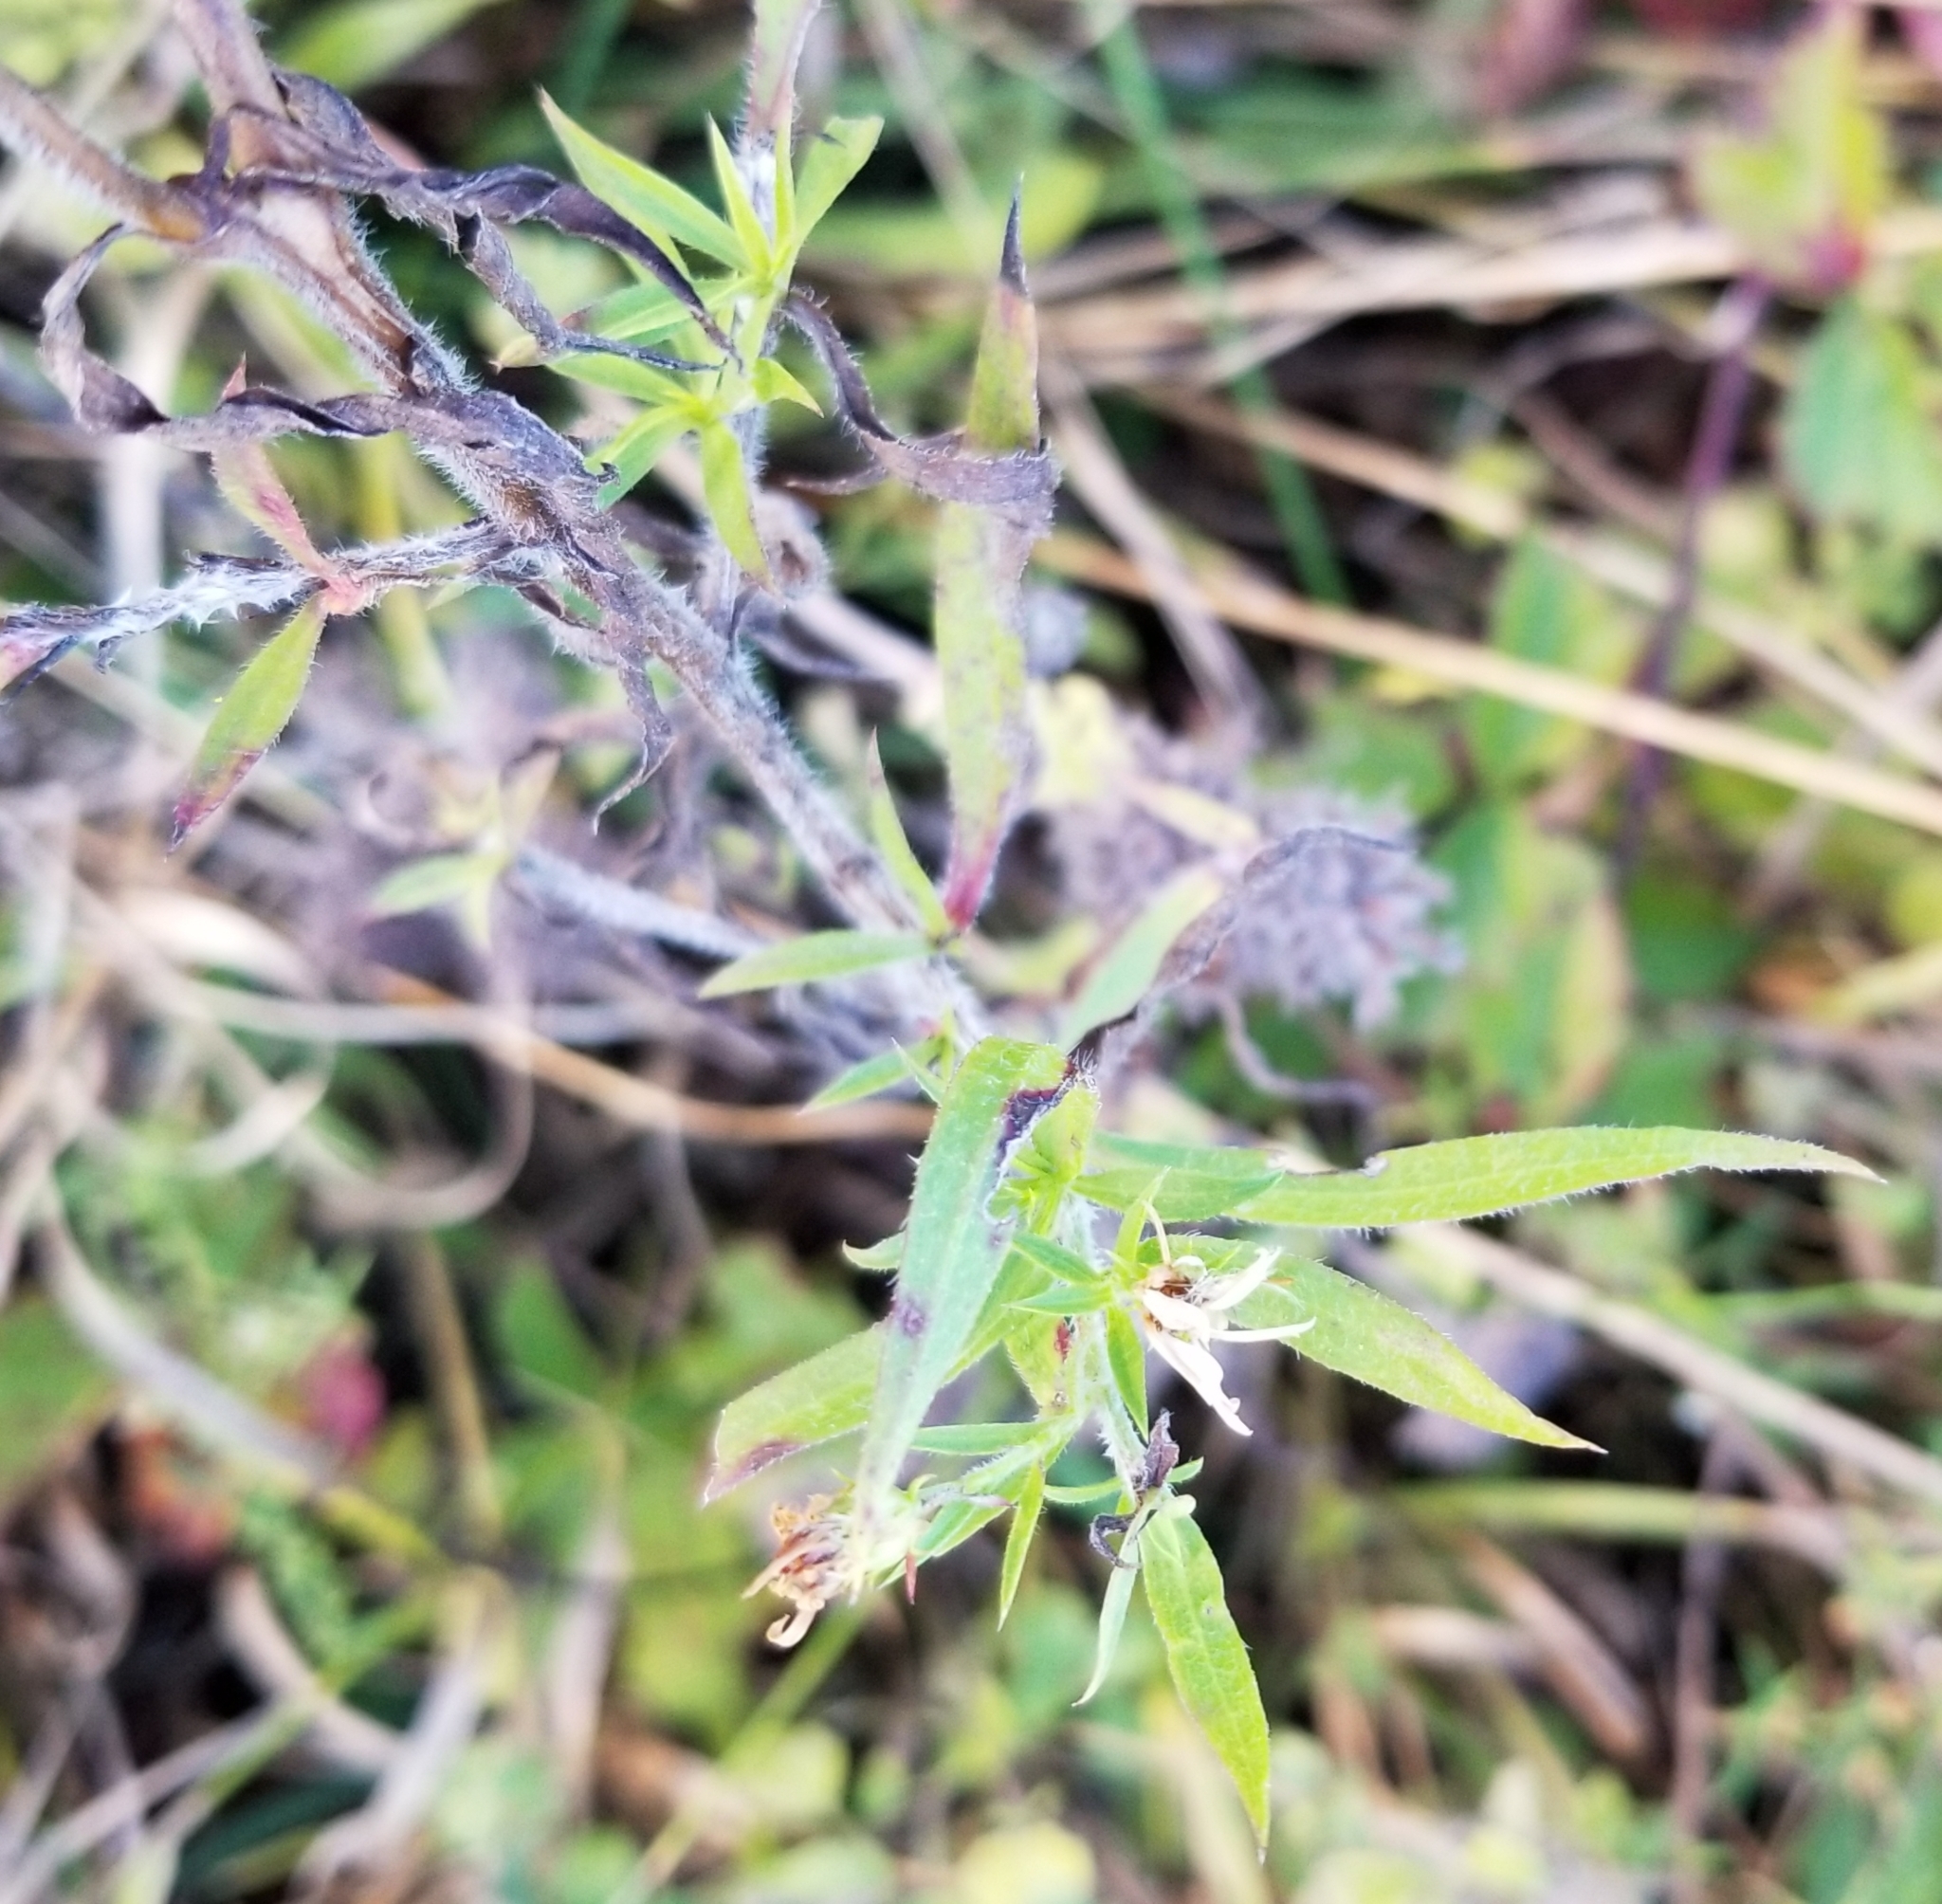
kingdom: Plantae
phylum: Tracheophyta
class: Magnoliopsida
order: Asterales
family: Asteraceae
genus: Symphyotrichum
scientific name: Symphyotrichum pilosum
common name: Awl aster
